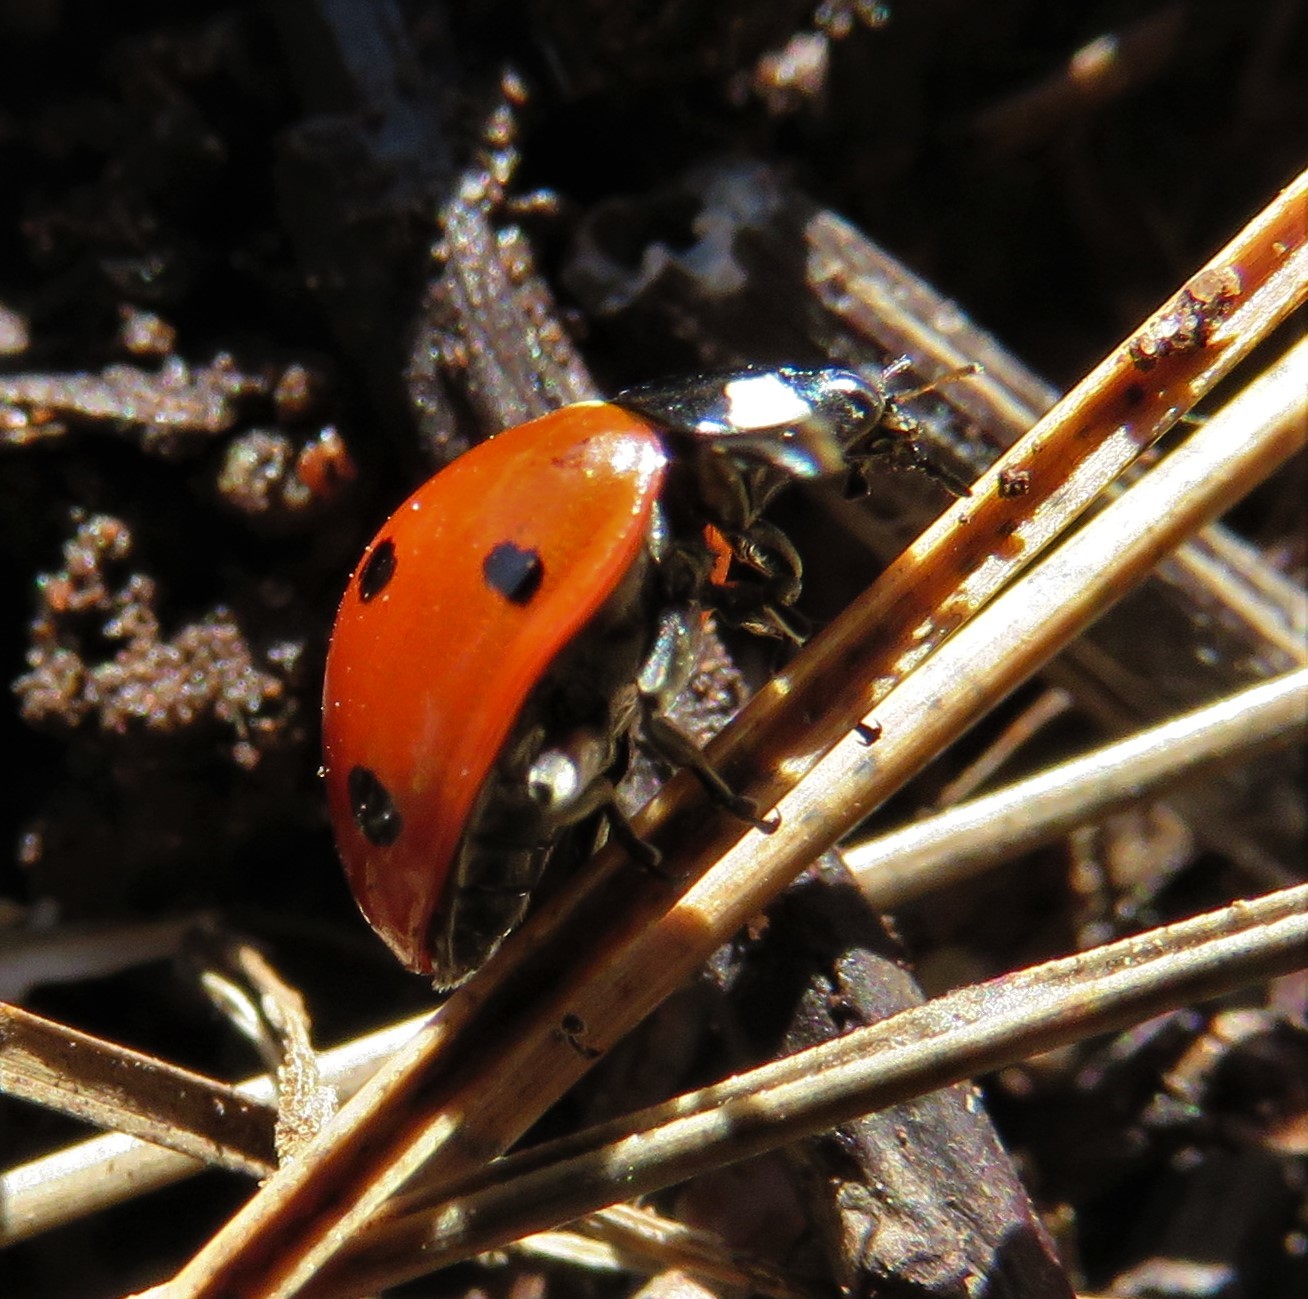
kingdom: Animalia
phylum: Arthropoda
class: Insecta
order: Coleoptera
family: Coccinellidae
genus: Coccinella
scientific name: Coccinella septempunctata
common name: Sevenspotted lady beetle
